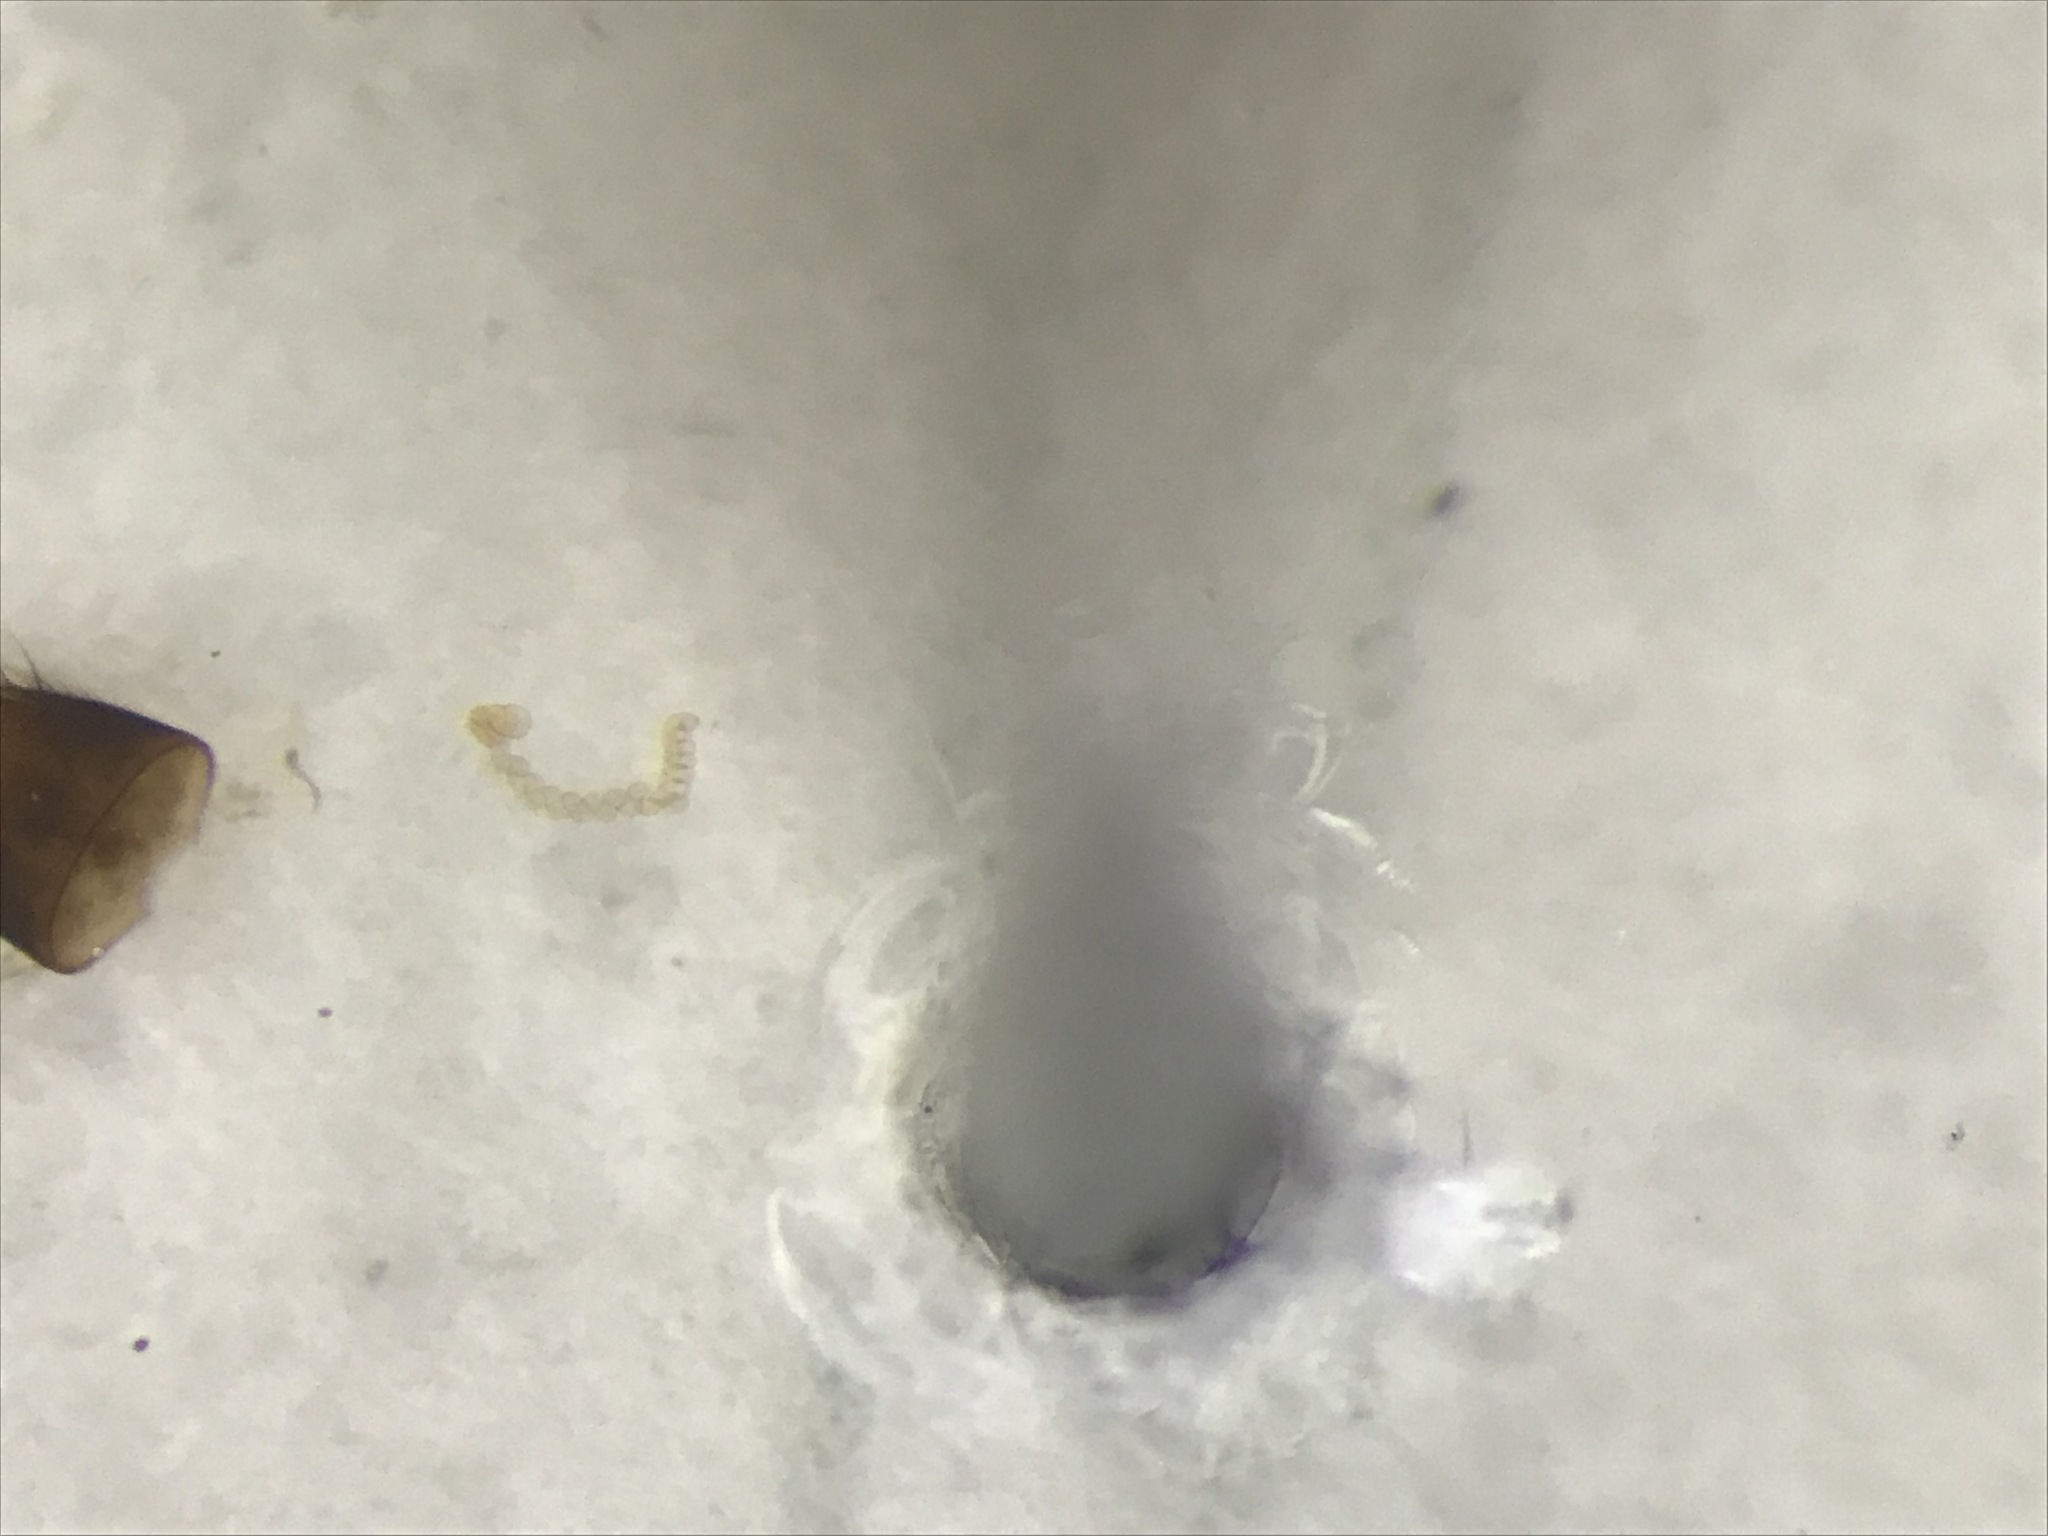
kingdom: Animalia
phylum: Arthropoda
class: Insecta
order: Coleoptera
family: Staphylinidae
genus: Hylota
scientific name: Hylota ochracea
